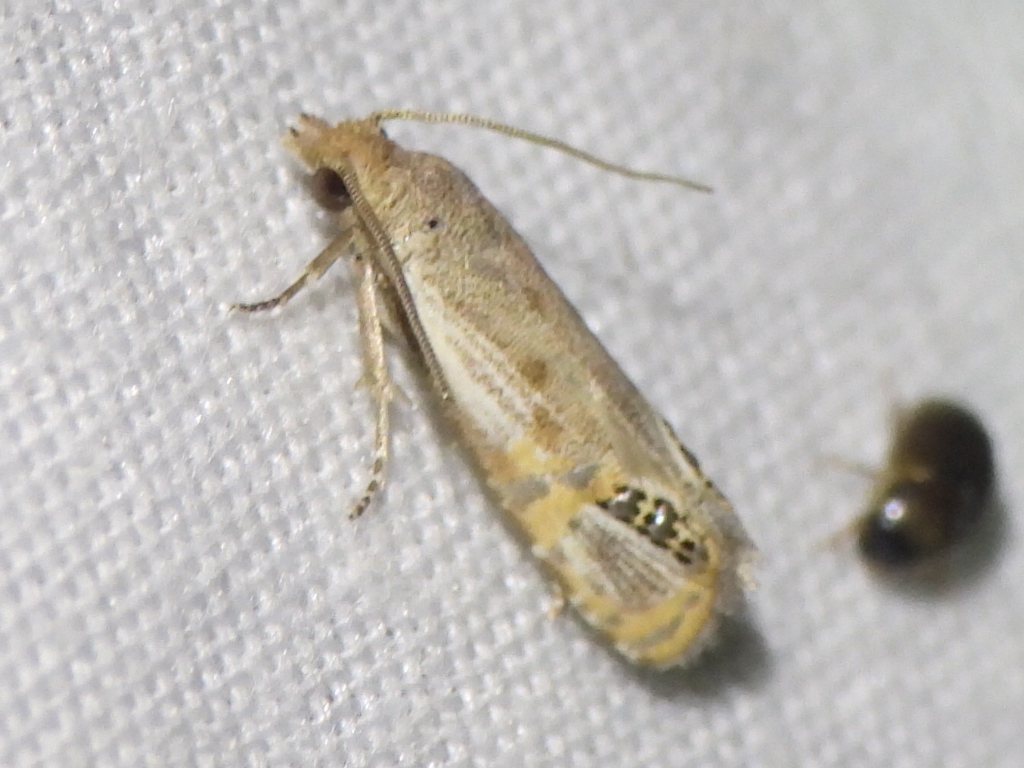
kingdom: Animalia
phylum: Arthropoda
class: Insecta
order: Lepidoptera
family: Tortricidae
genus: Pelochrista
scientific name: Pelochrista scintillana
